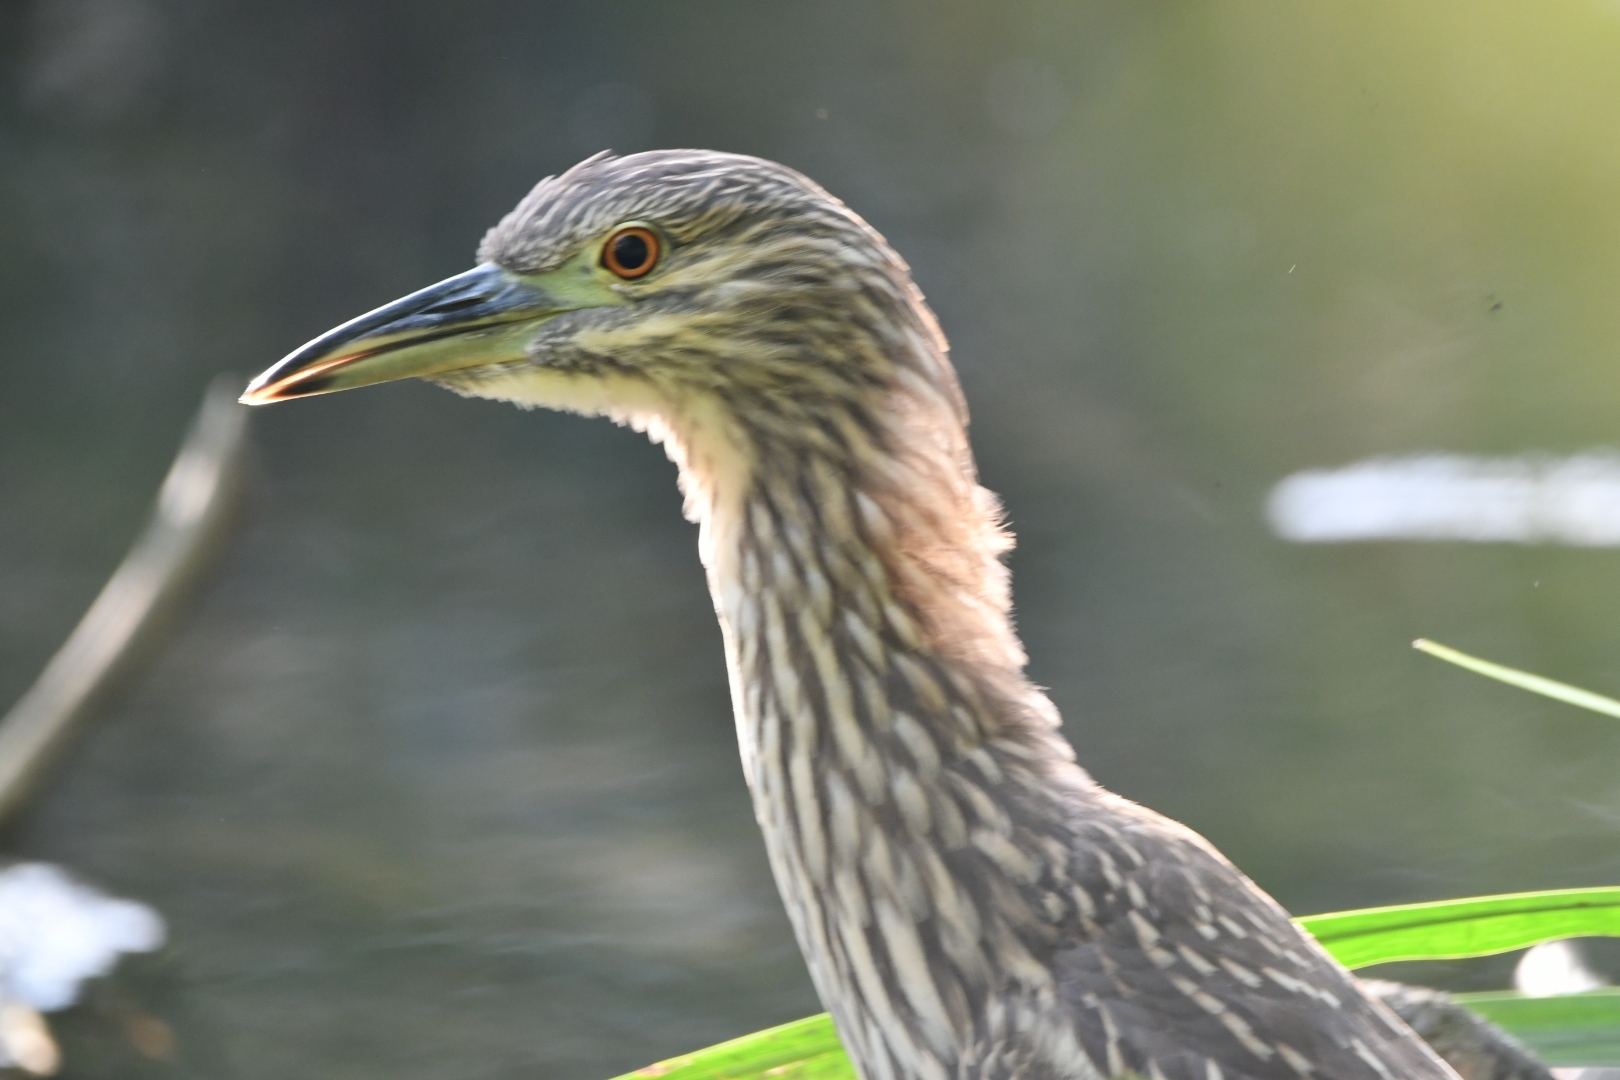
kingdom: Animalia
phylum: Chordata
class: Aves
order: Pelecaniformes
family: Ardeidae
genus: Nycticorax
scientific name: Nycticorax nycticorax
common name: Black-crowned night heron
